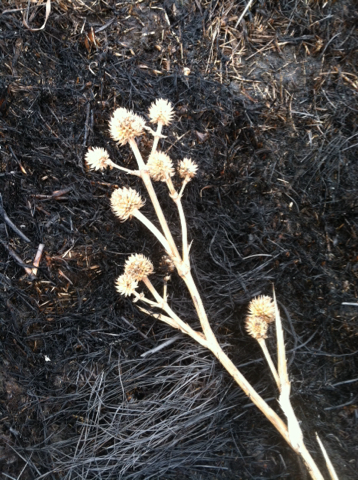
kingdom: Plantae
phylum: Tracheophyta
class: Magnoliopsida
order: Apiales
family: Apiaceae
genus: Eryngium
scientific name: Eryngium yuccifolium
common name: Button eryngo
